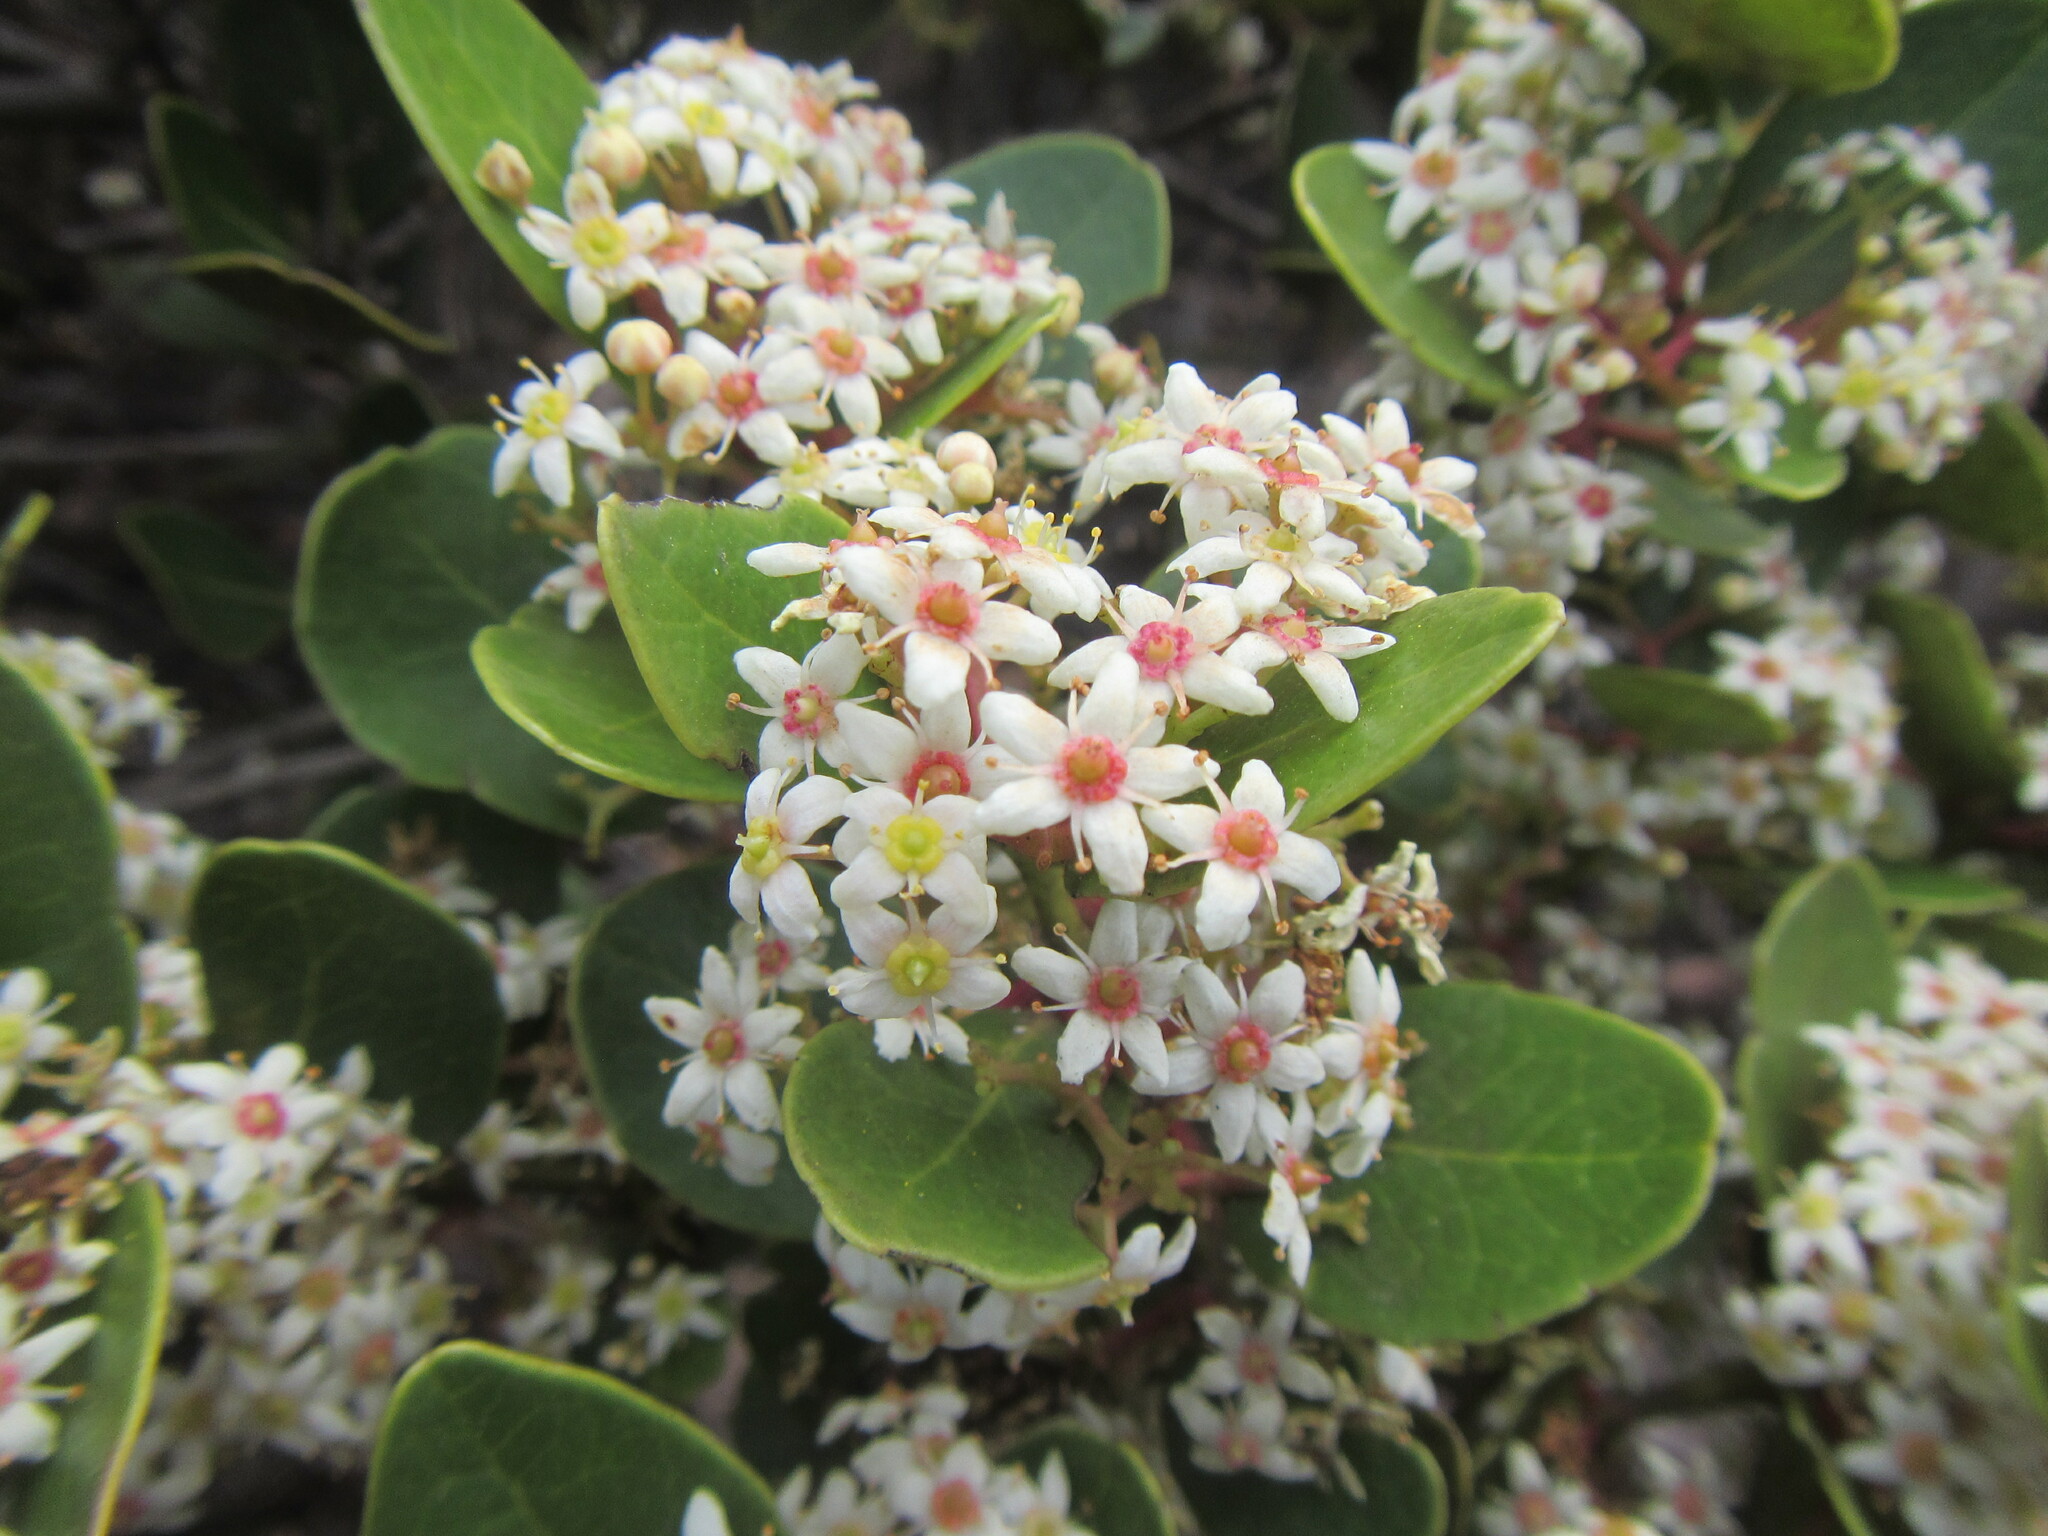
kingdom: Plantae
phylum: Tracheophyta
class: Magnoliopsida
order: Celastrales
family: Celastraceae
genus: Cassine
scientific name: Cassine peragua
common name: Cape saffron
